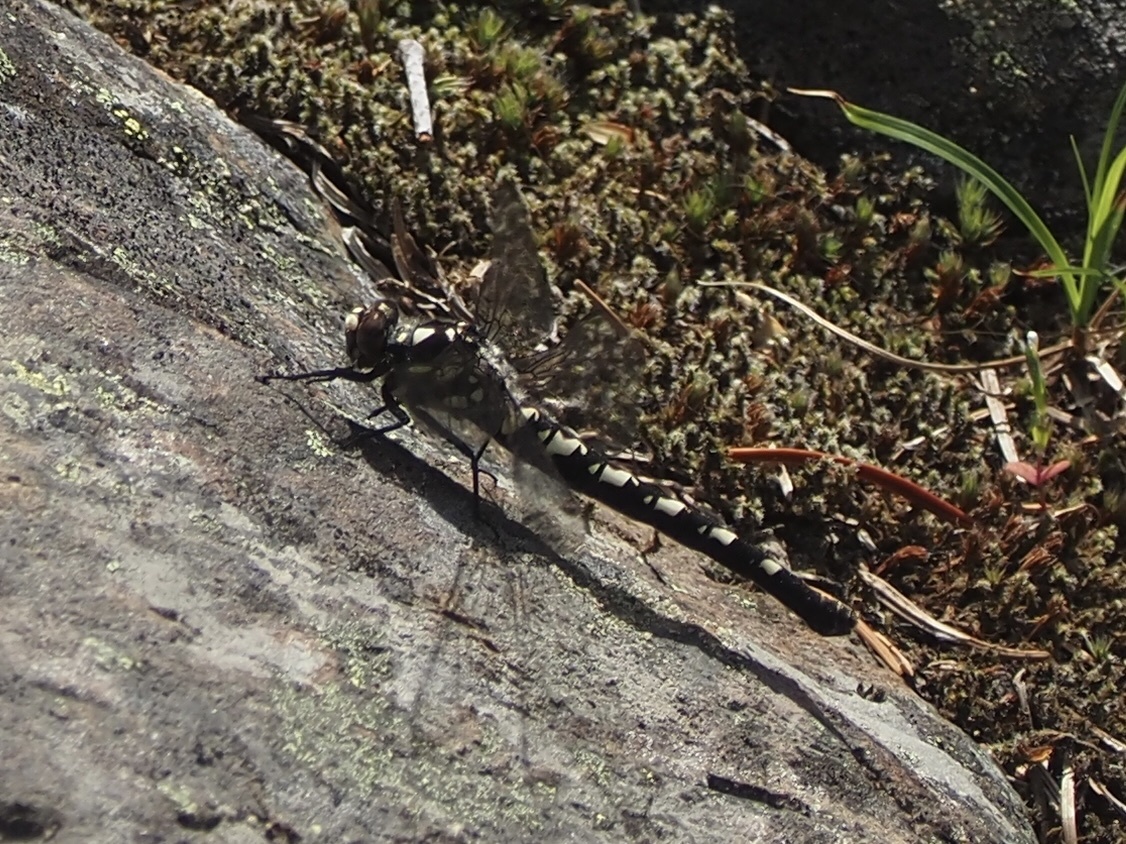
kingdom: Animalia
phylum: Arthropoda
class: Insecta
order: Odonata
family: Petaluridae
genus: Tanypteryx
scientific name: Tanypteryx hageni
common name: Black petaltail
